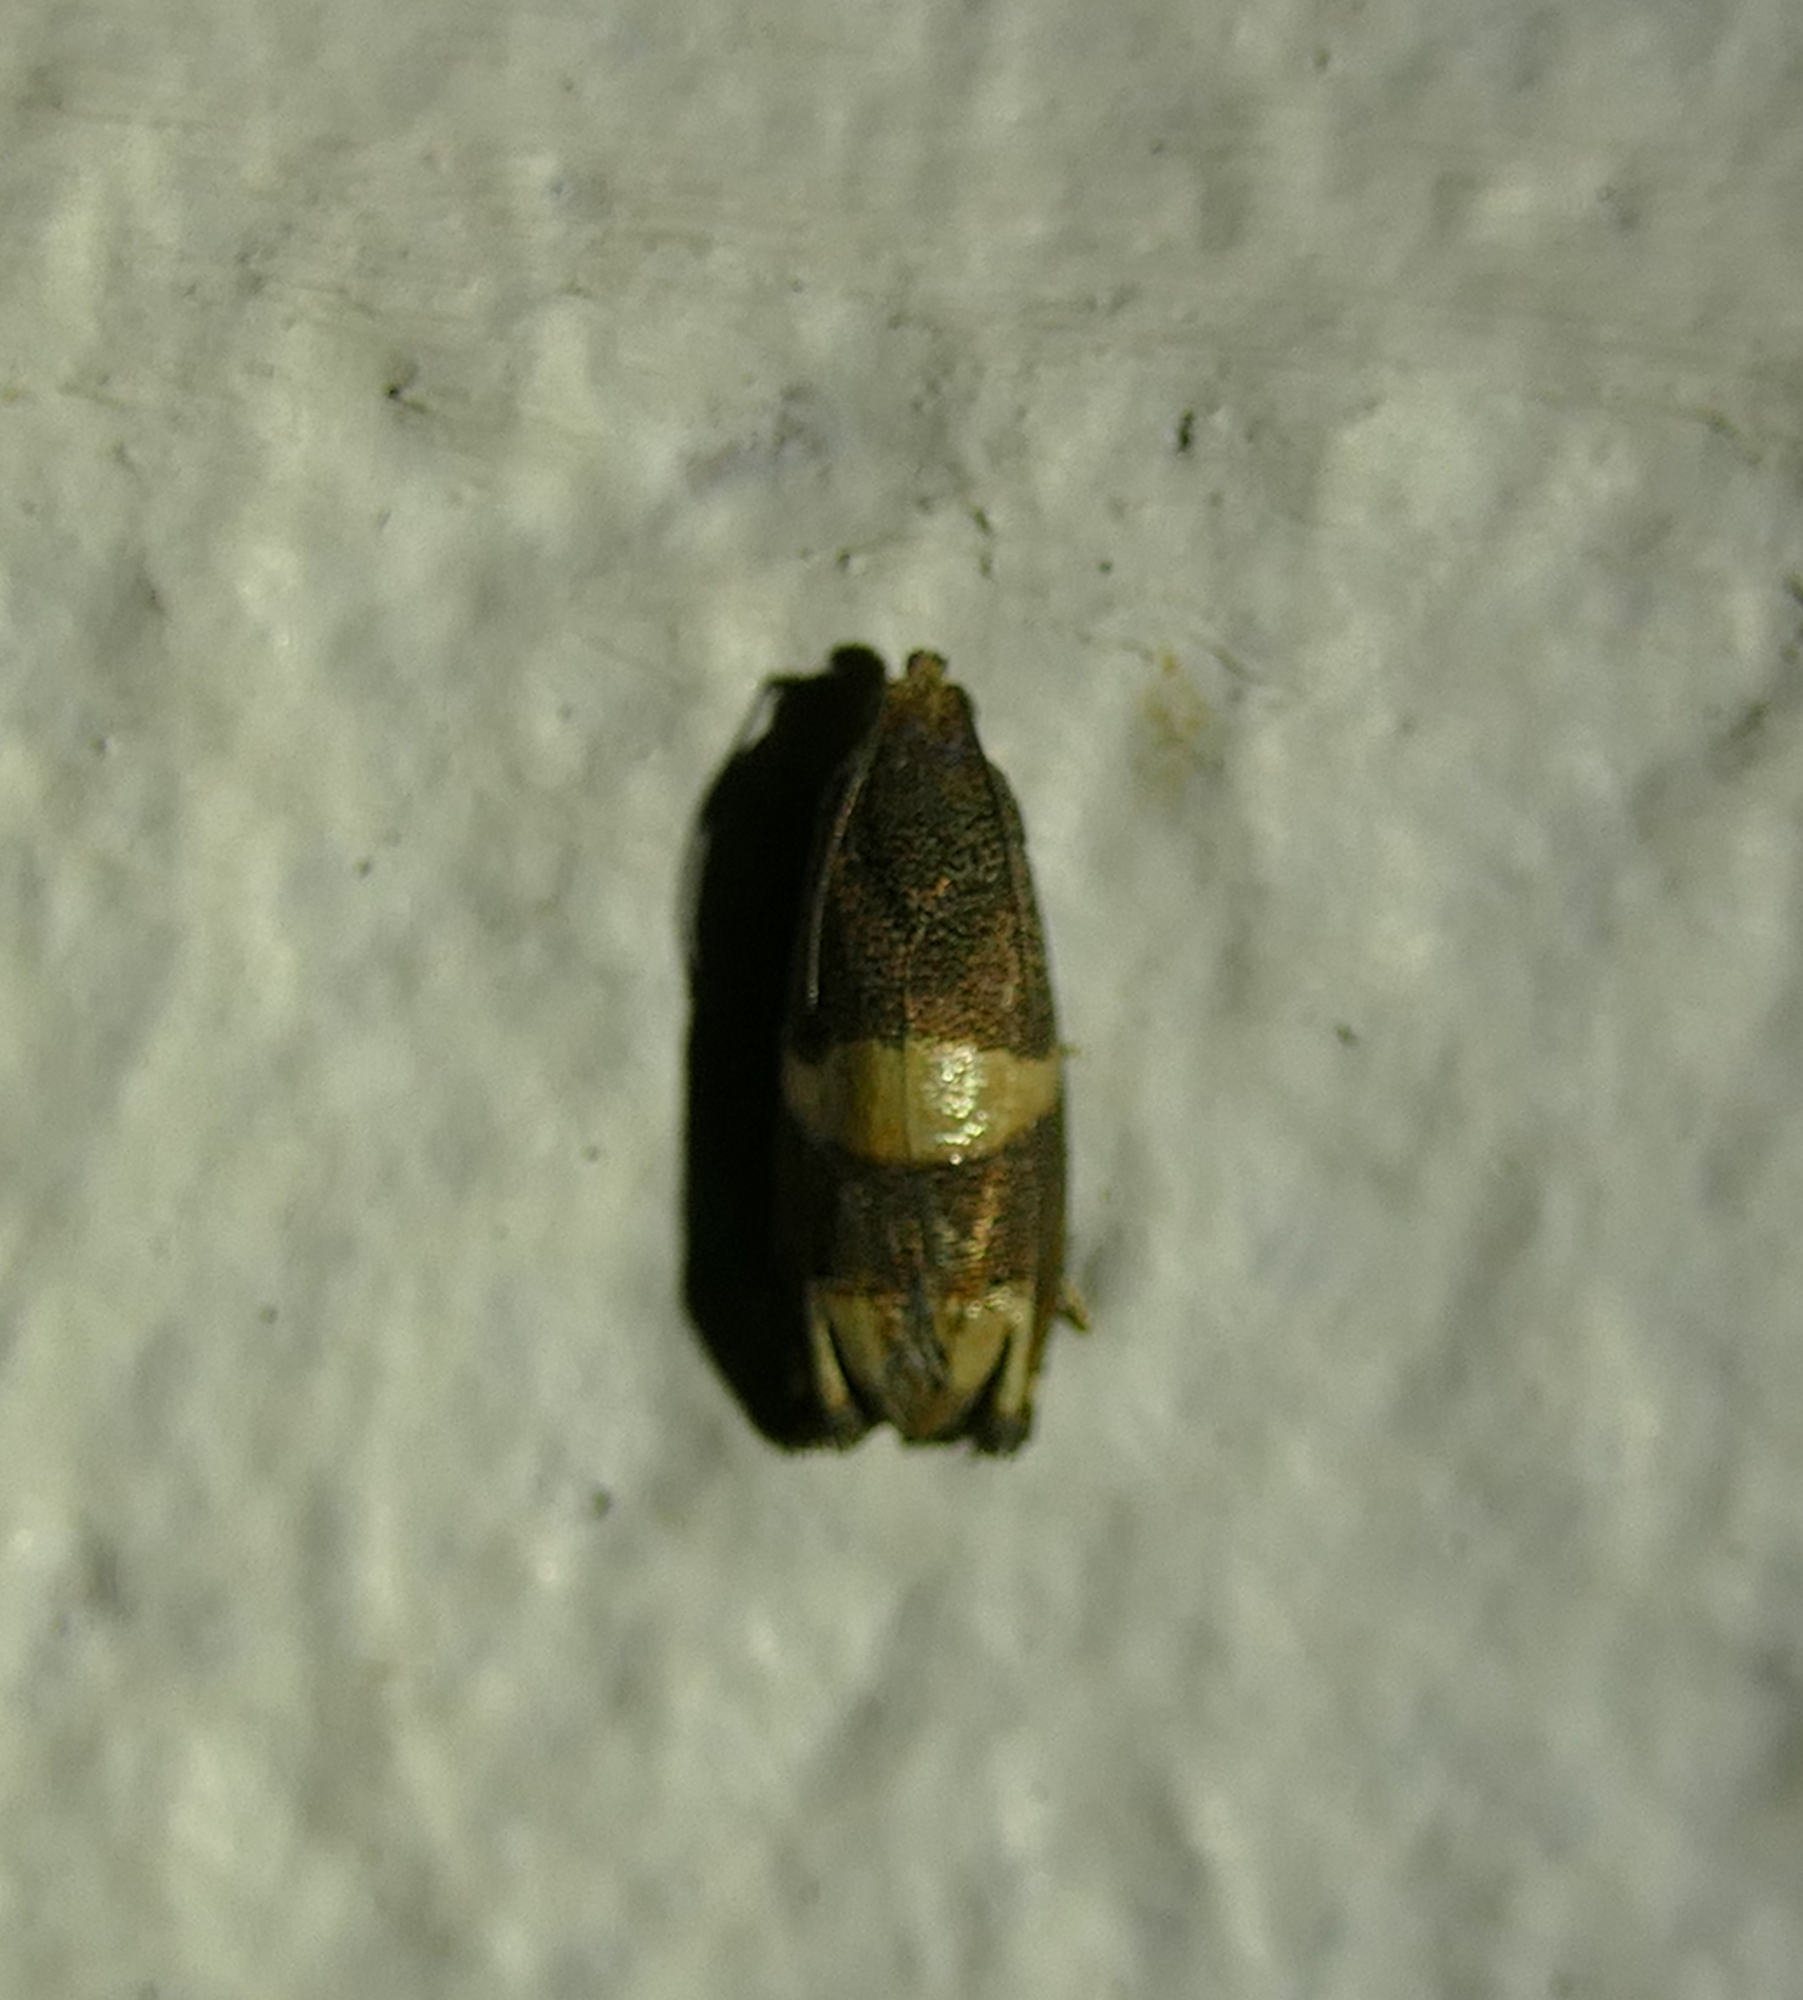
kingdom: Animalia
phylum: Arthropoda
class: Insecta
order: Lepidoptera
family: Tortricidae
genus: Epiblema
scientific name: Epiblema
